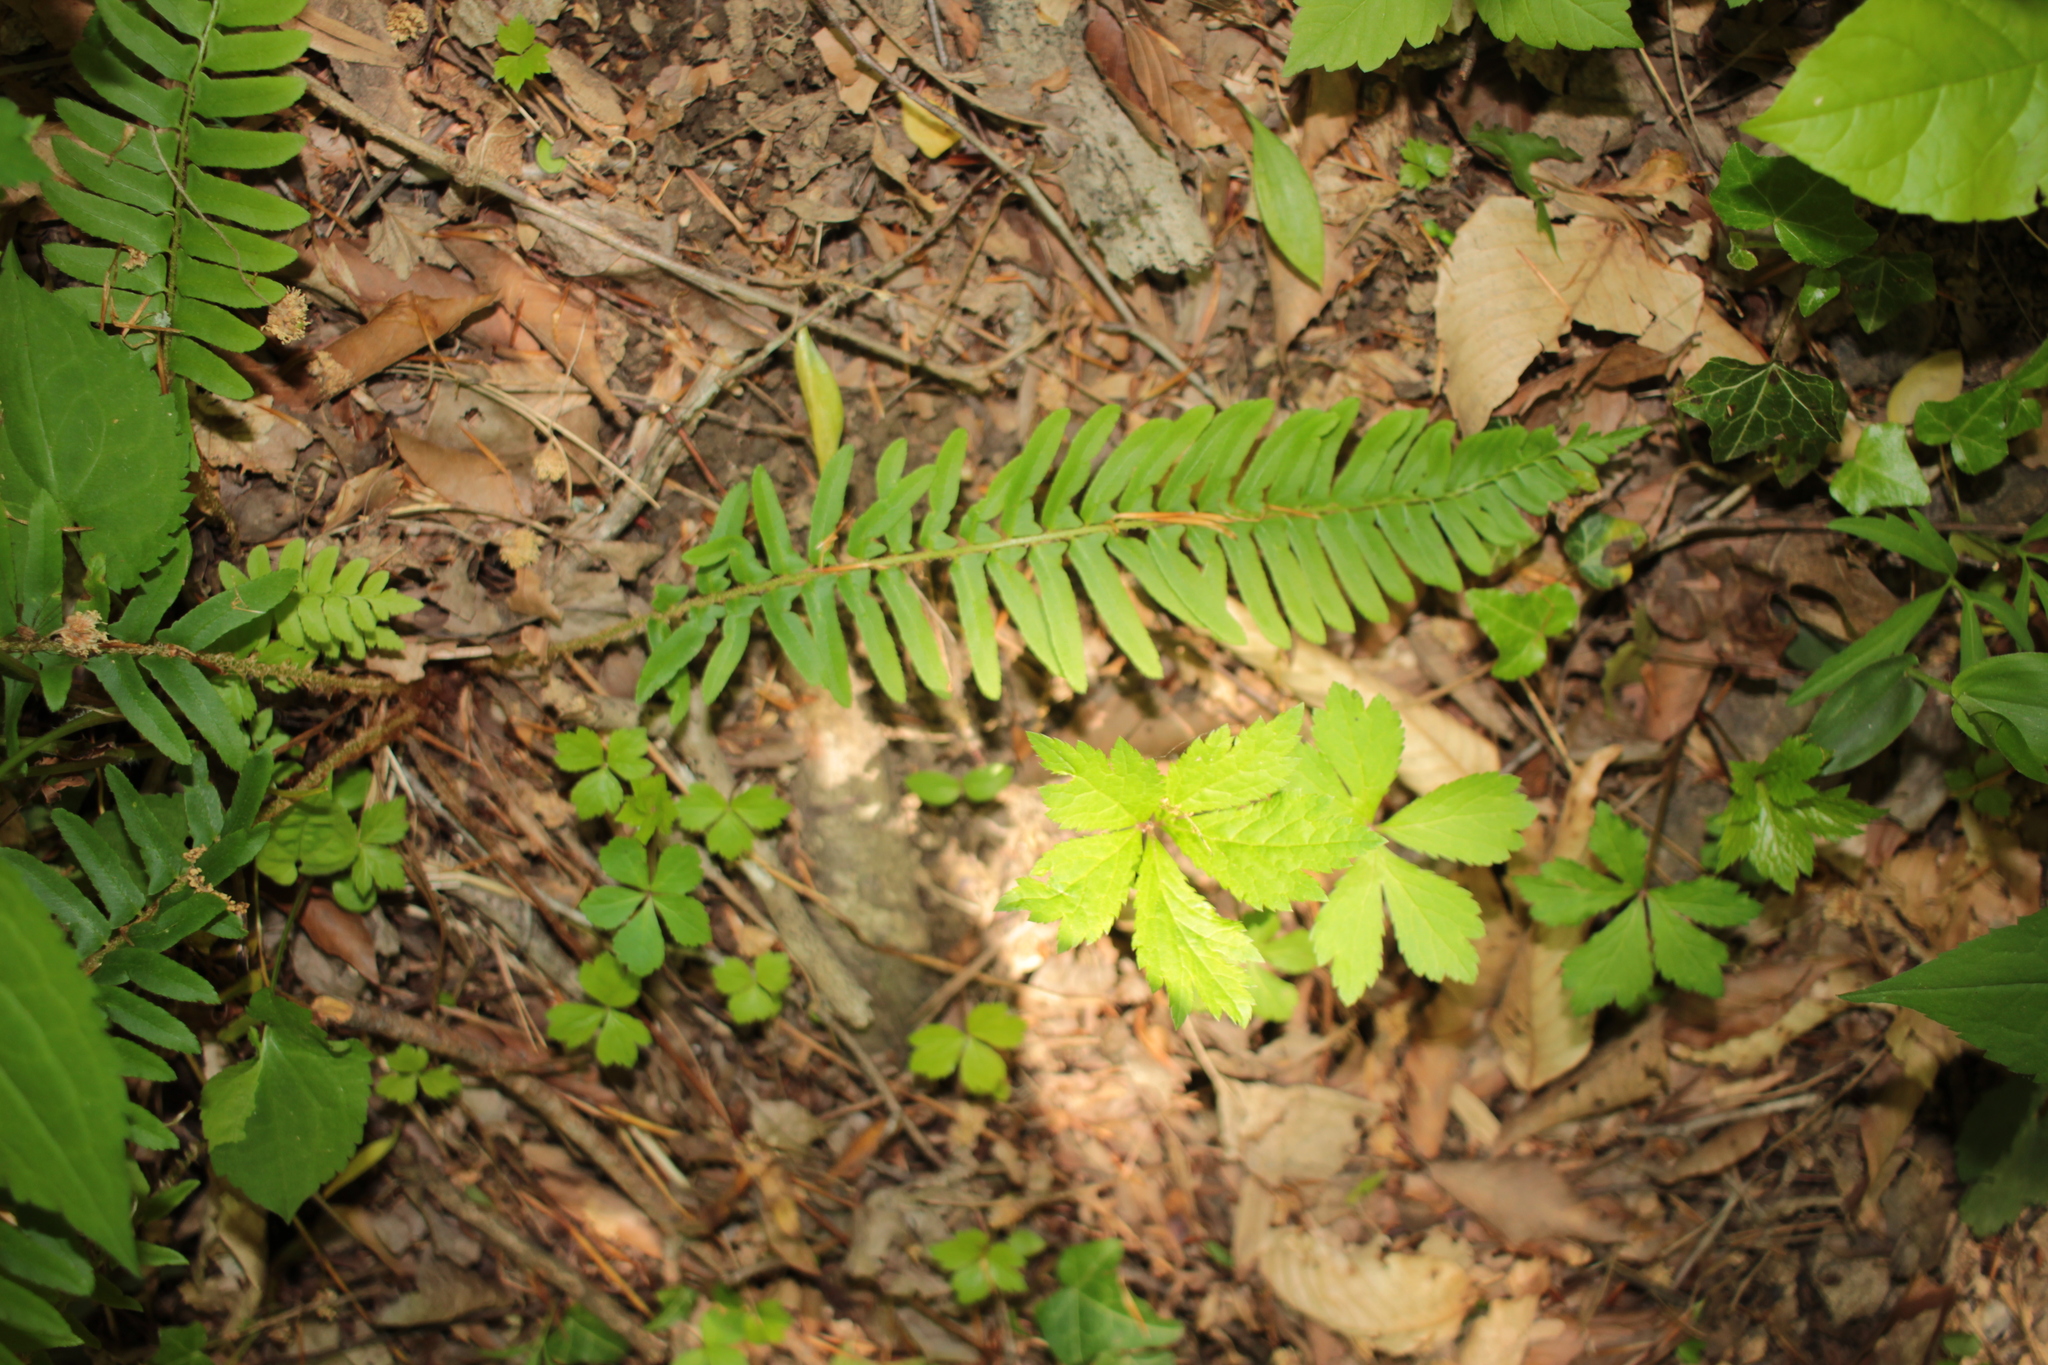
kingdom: Plantae
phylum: Tracheophyta
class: Polypodiopsida
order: Polypodiales
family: Dryopteridaceae
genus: Polystichum
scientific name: Polystichum acrostichoides
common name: Christmas fern
